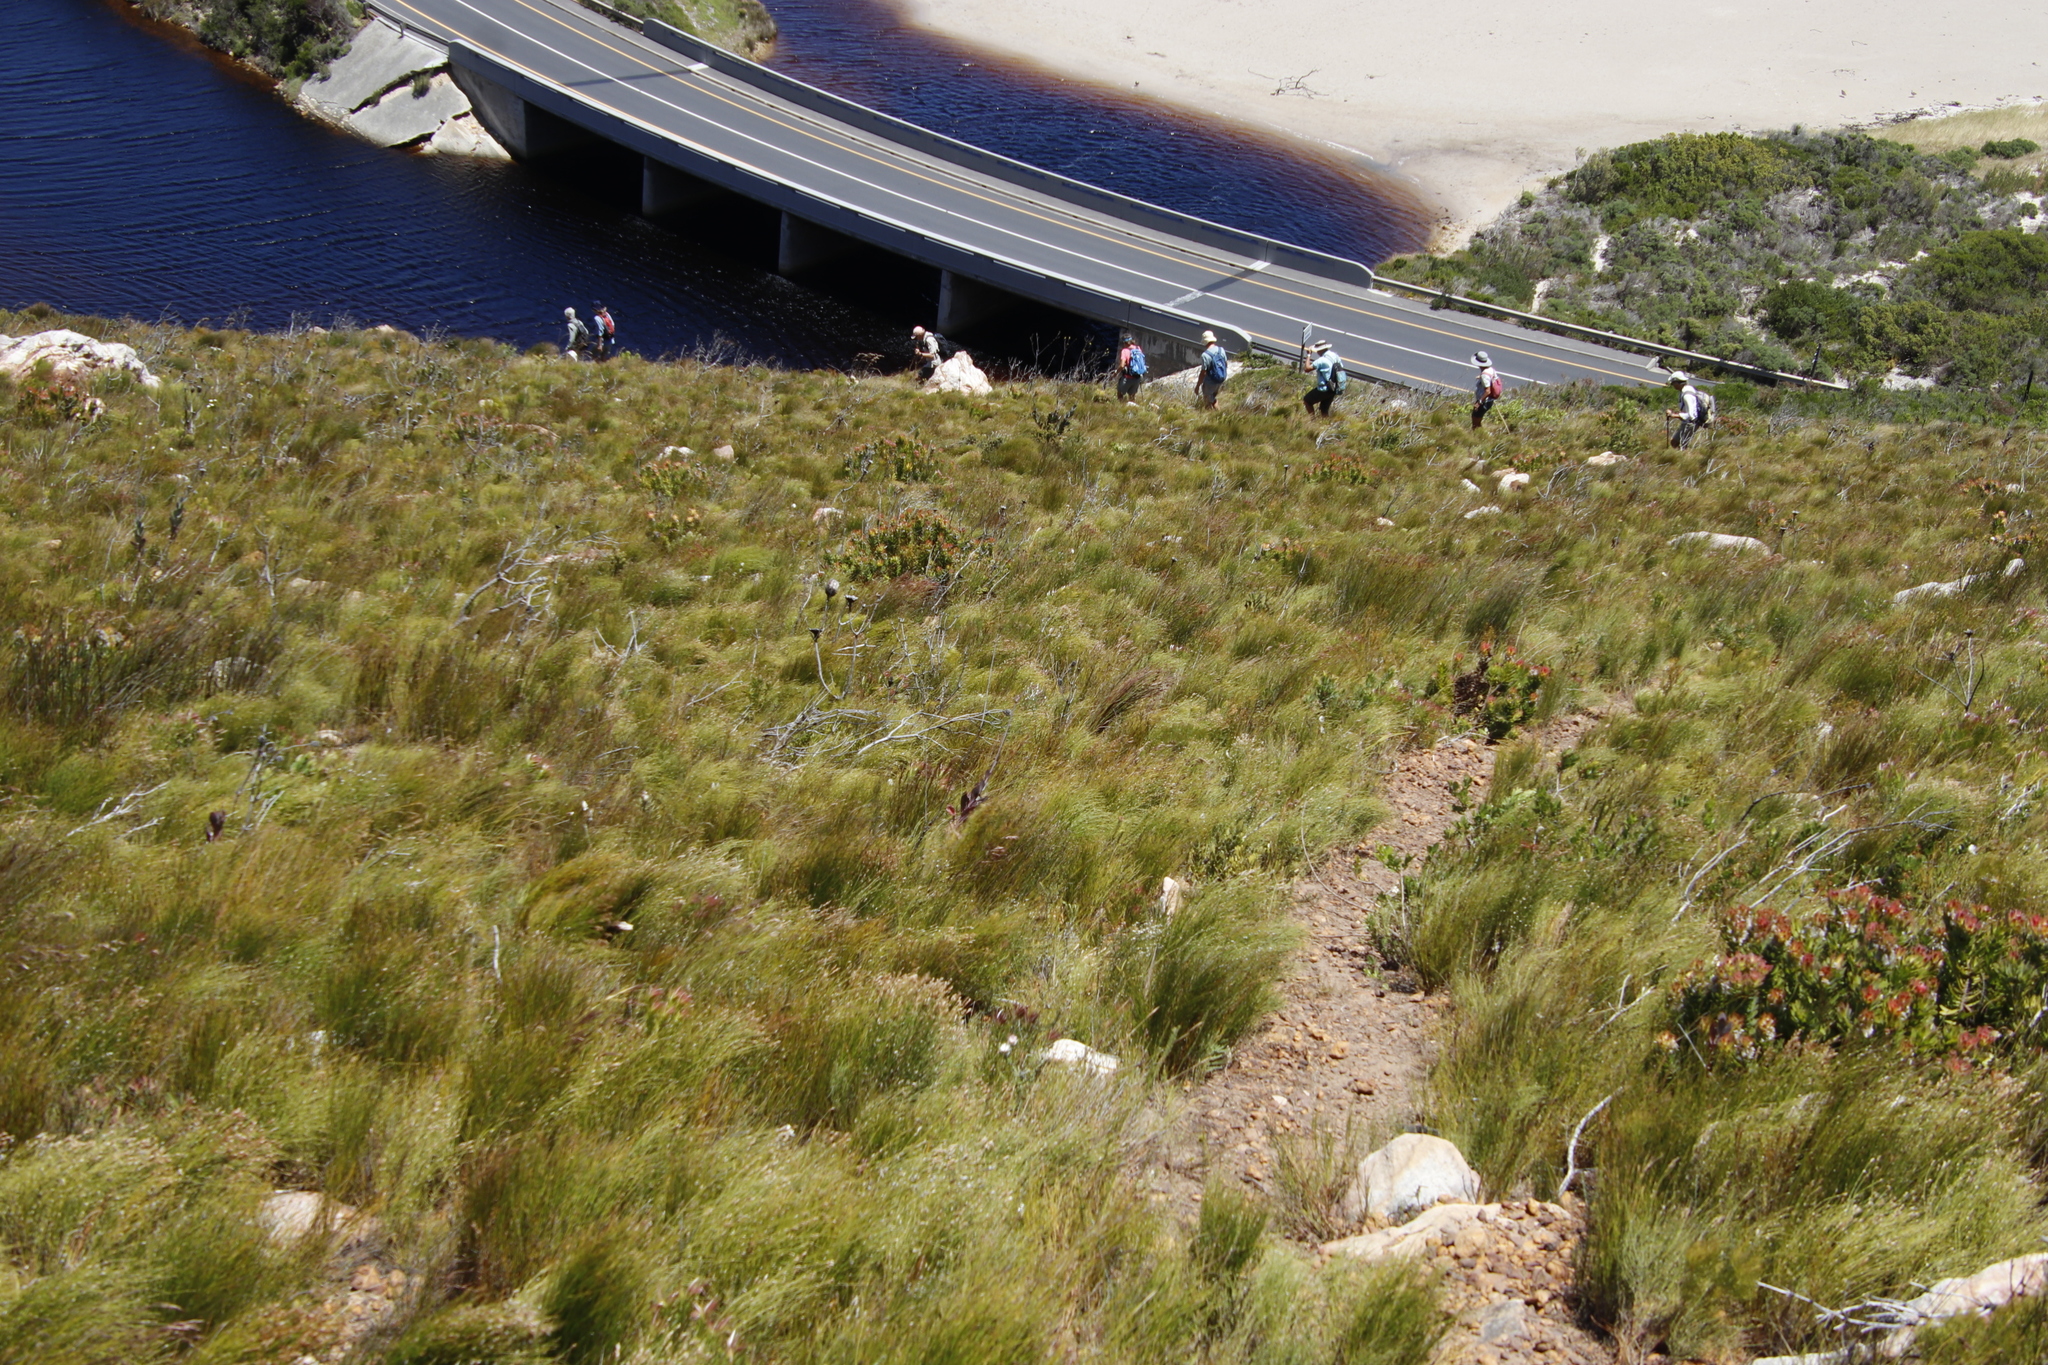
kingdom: Plantae
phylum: Tracheophyta
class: Magnoliopsida
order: Proteales
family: Proteaceae
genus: Mimetes
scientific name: Mimetes cucullatus
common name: Common pagoda
